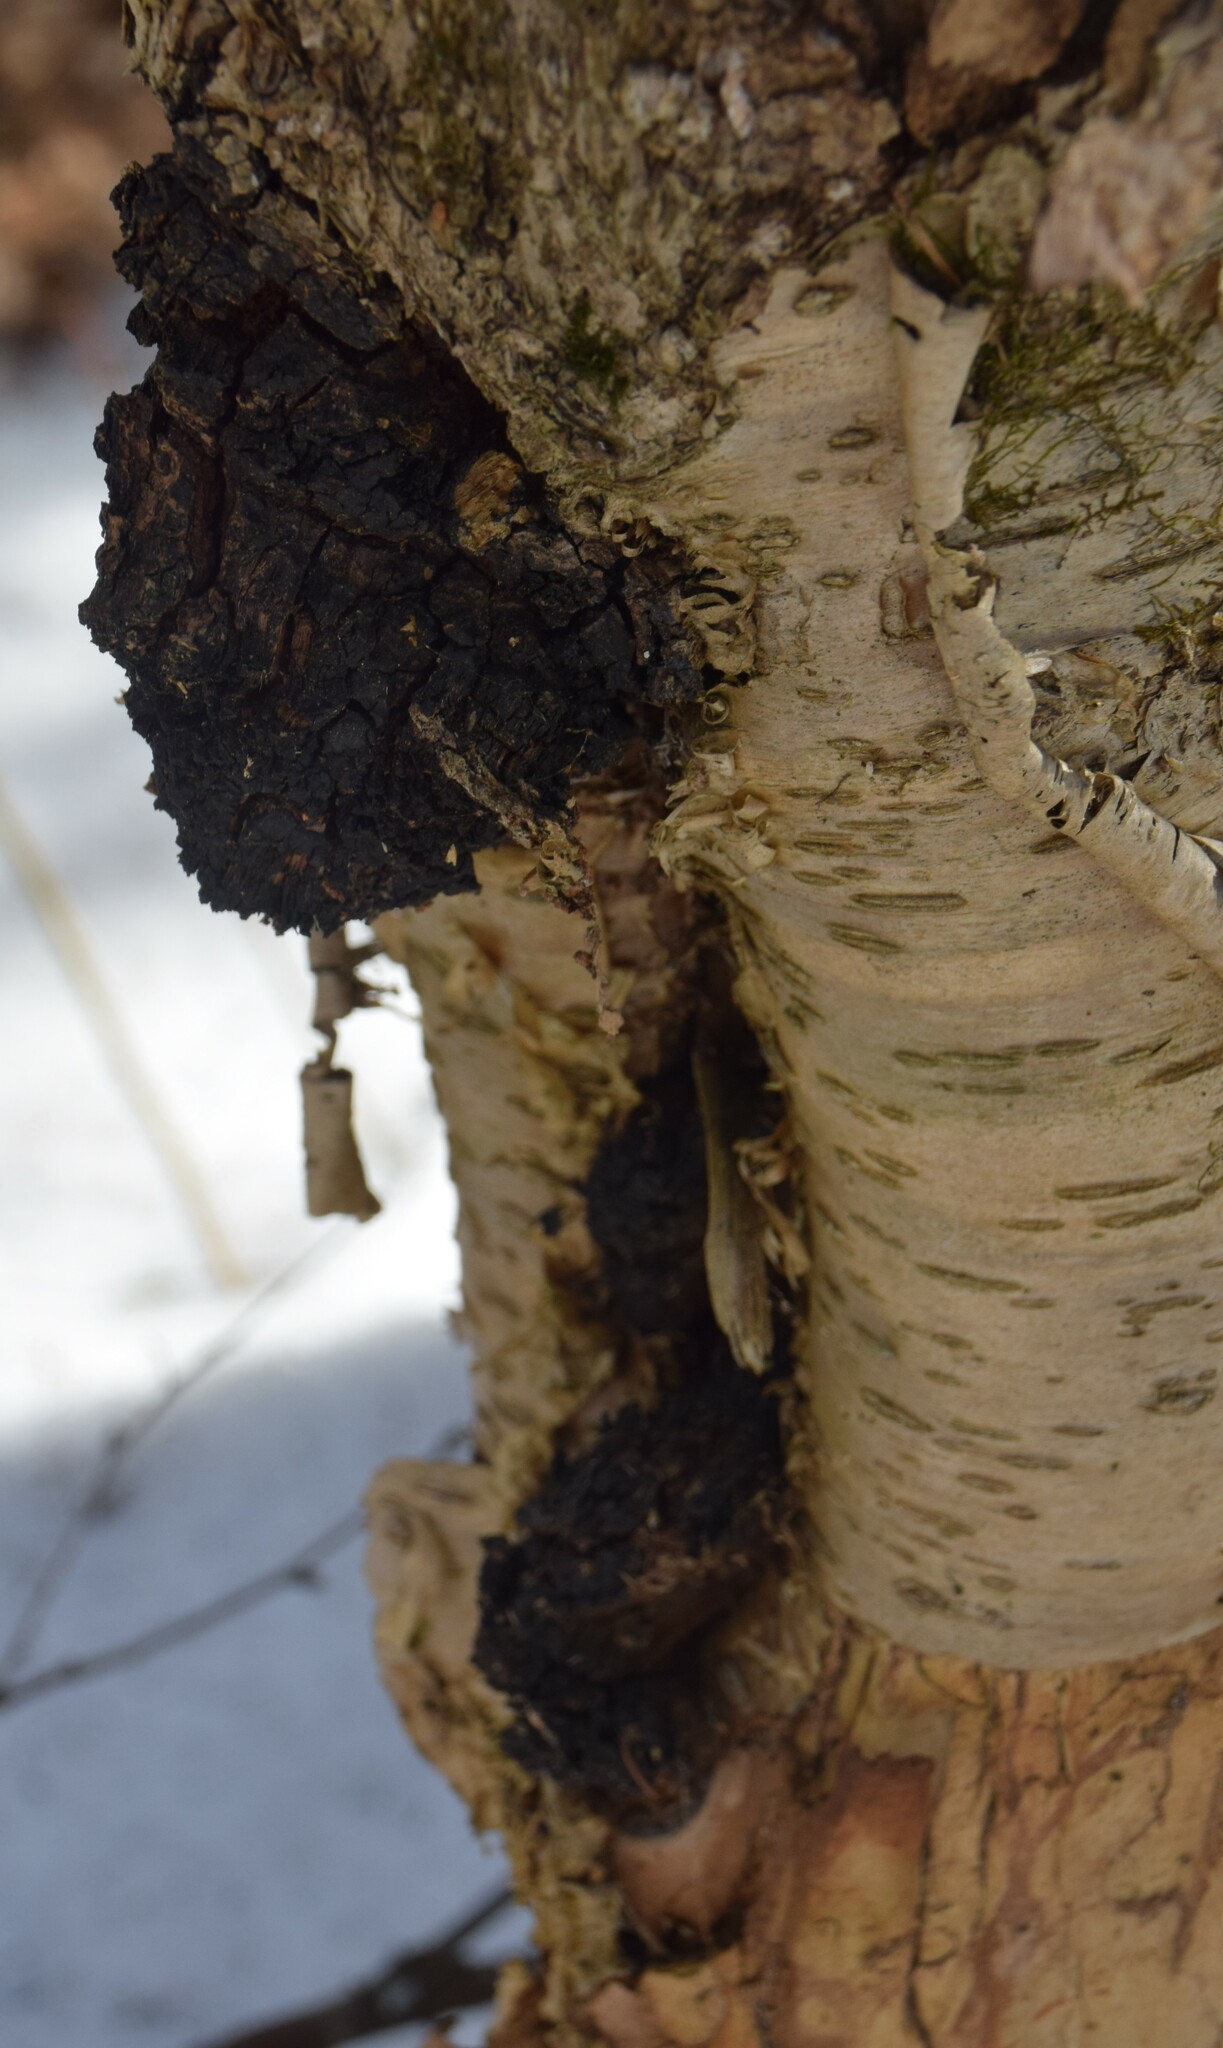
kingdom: Fungi
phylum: Basidiomycota
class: Agaricomycetes
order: Hymenochaetales
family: Hymenochaetaceae
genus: Inonotus
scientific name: Inonotus obliquus
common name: Chaga
